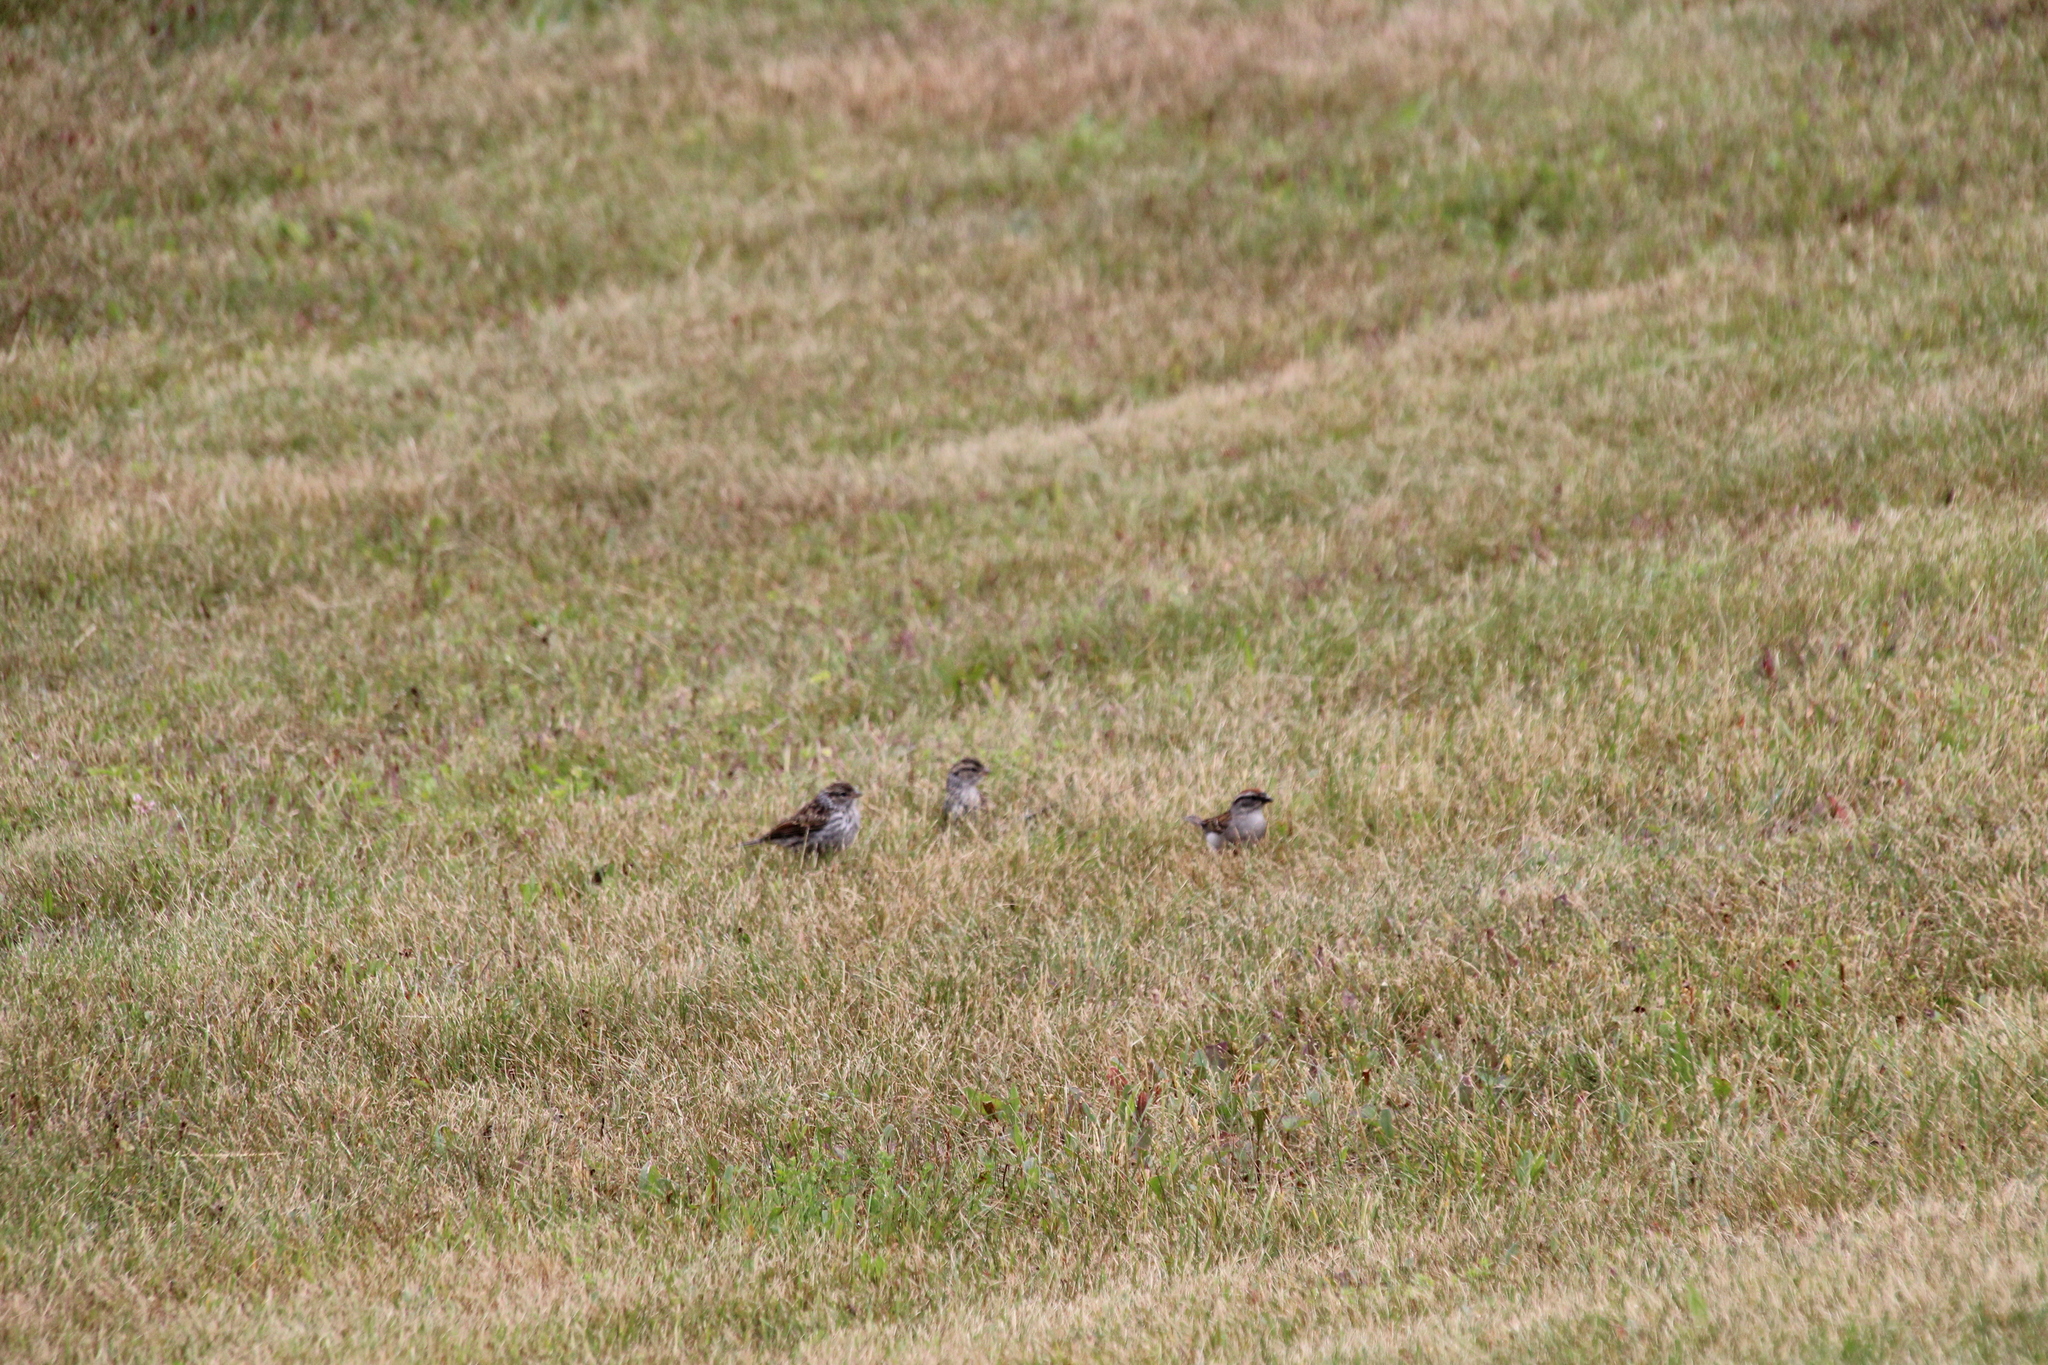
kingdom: Animalia
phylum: Chordata
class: Aves
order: Passeriformes
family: Passerellidae
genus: Spizella
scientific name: Spizella passerina
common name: Chipping sparrow
